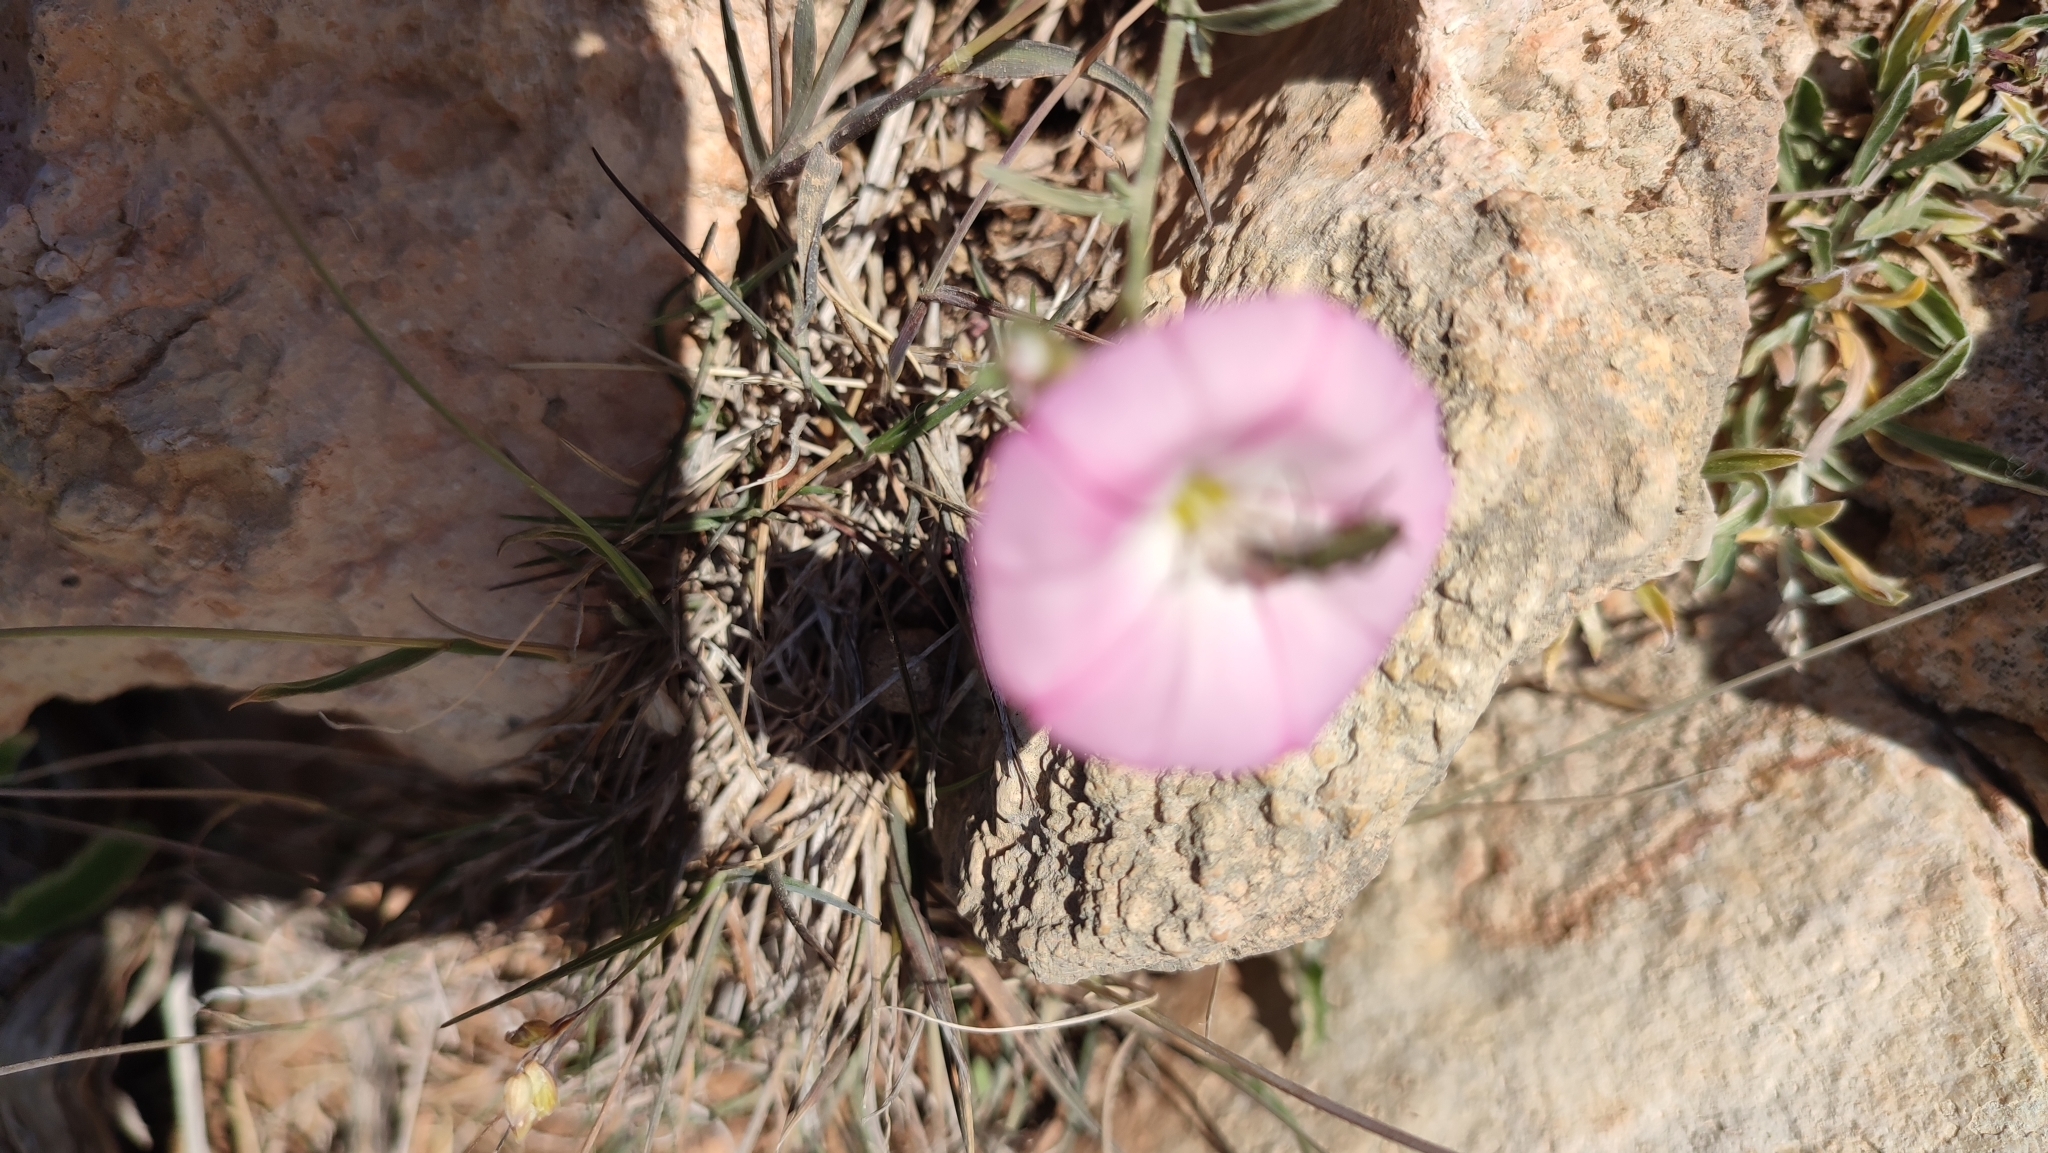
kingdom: Plantae
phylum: Tracheophyta
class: Magnoliopsida
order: Solanales
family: Convolvulaceae
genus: Convolvulus
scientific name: Convolvulus oleifolius
